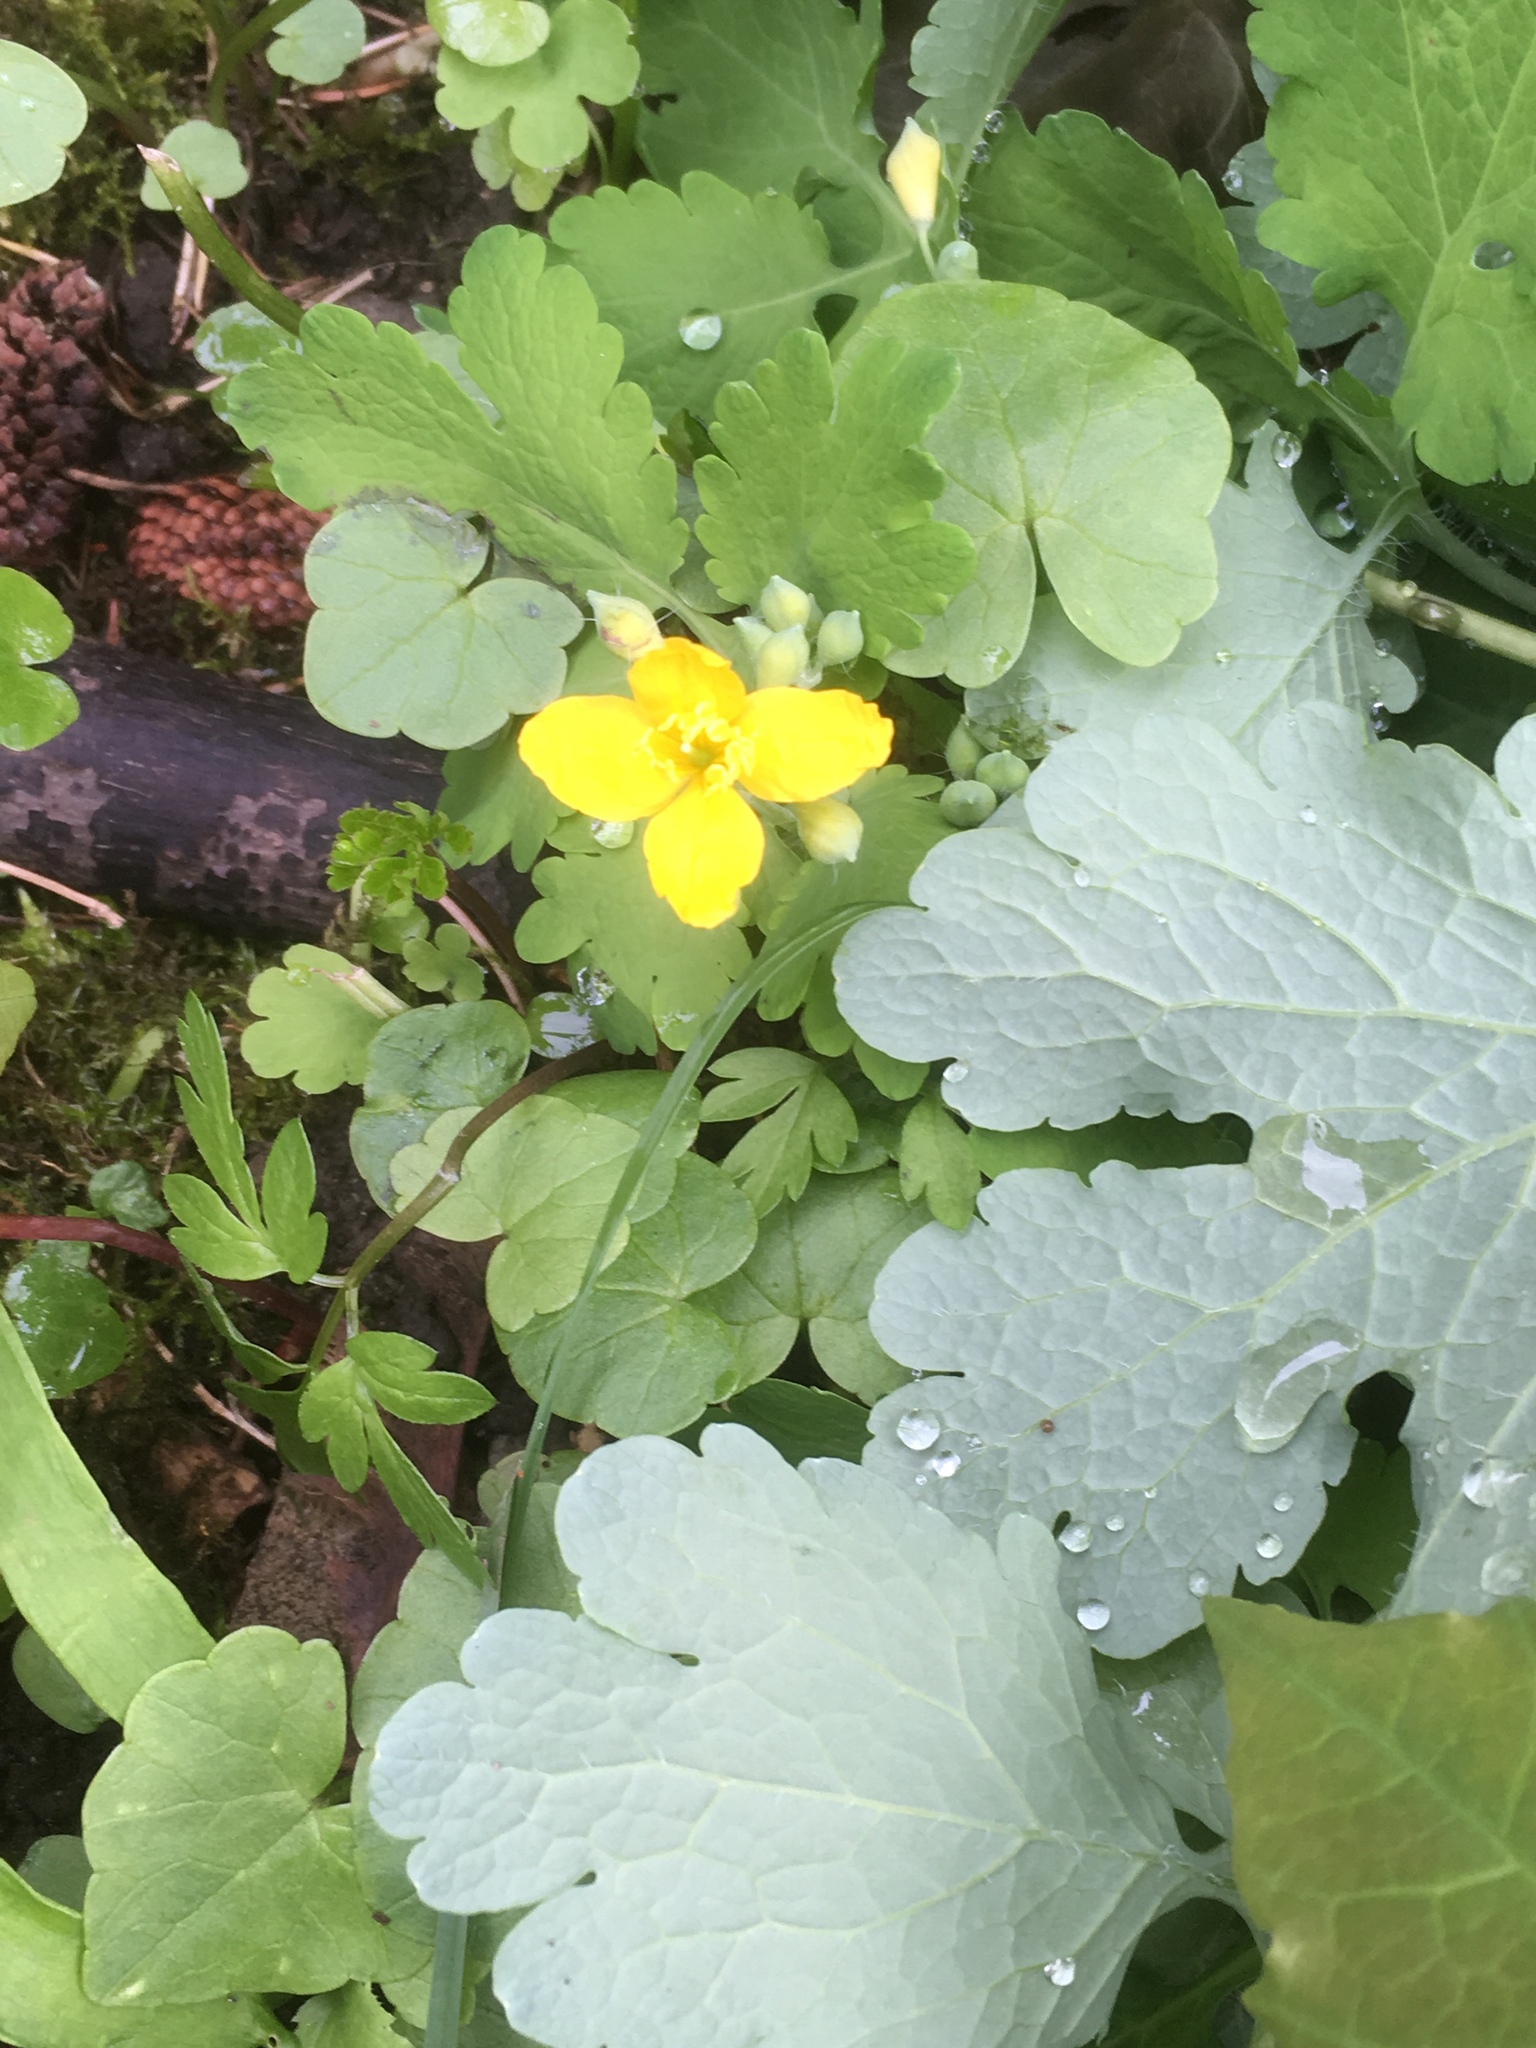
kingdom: Plantae
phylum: Tracheophyta
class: Magnoliopsida
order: Ranunculales
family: Papaveraceae
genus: Chelidonium
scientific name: Chelidonium majus
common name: Greater celandine
